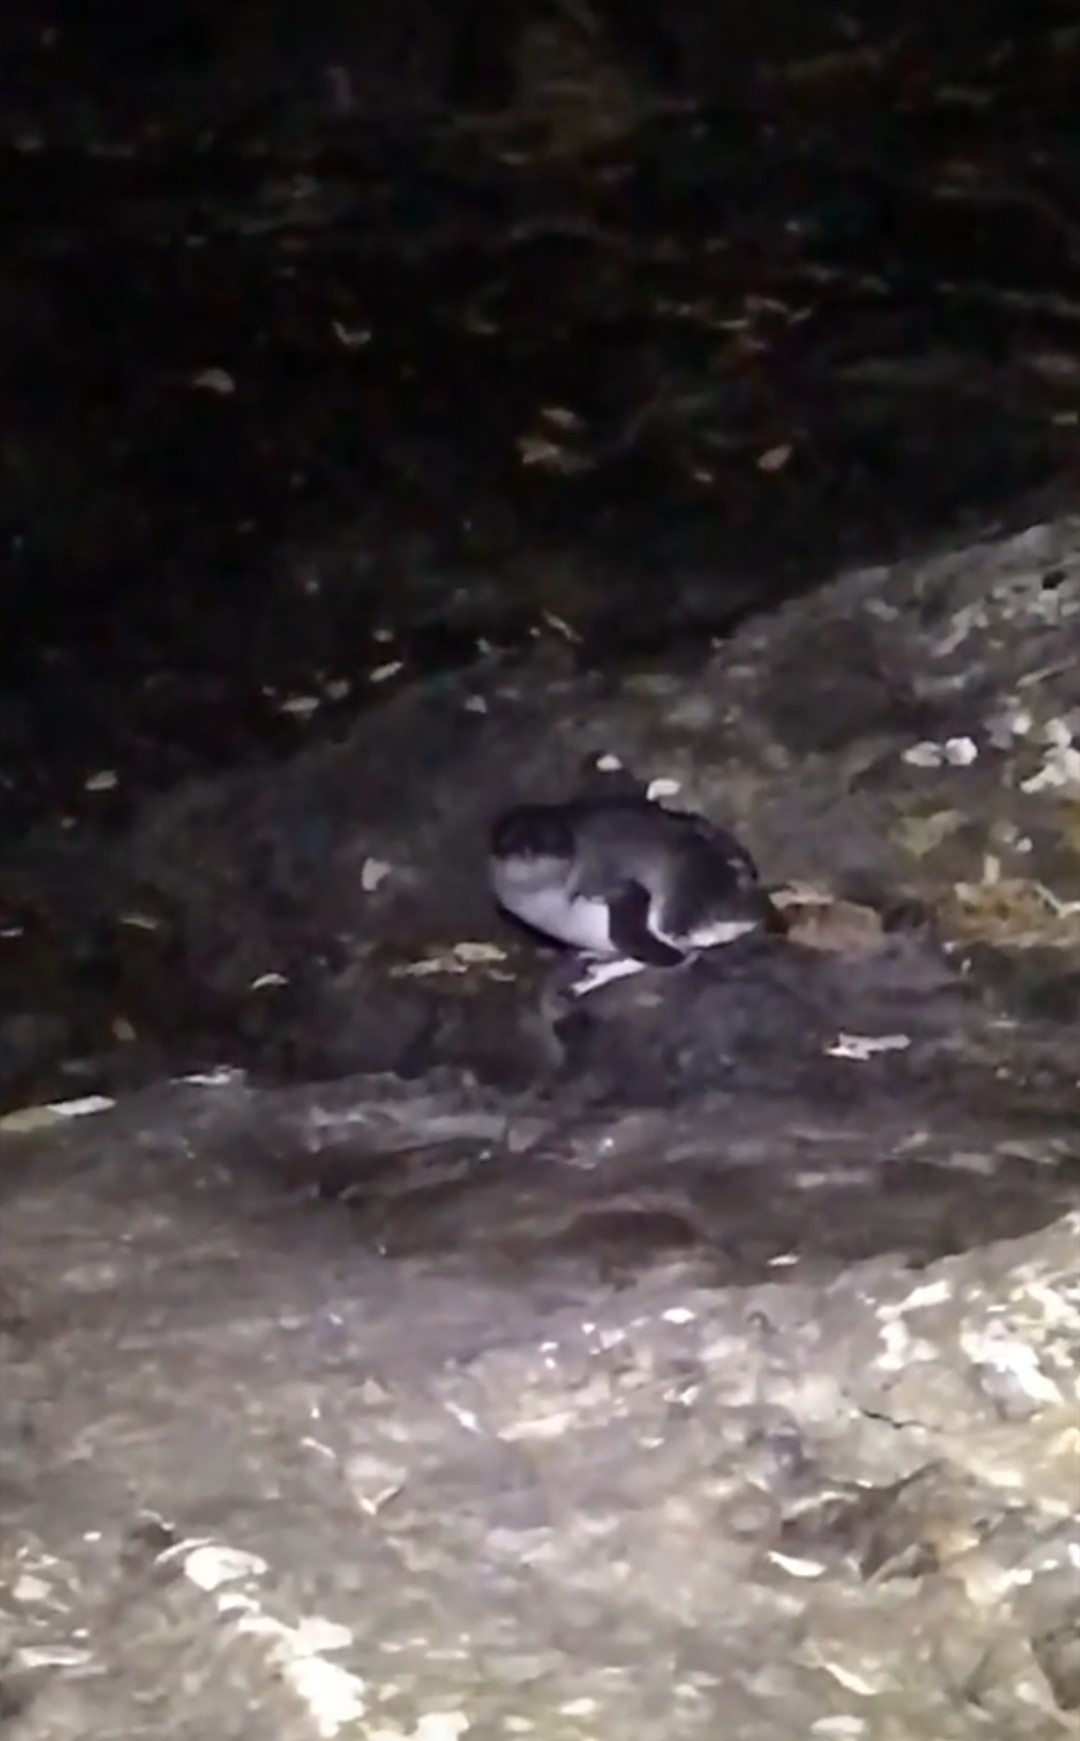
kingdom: Animalia
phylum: Chordata
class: Aves
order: Sphenisciformes
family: Spheniscidae
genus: Eudyptula
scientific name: Eudyptula minor
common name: Little penguin
